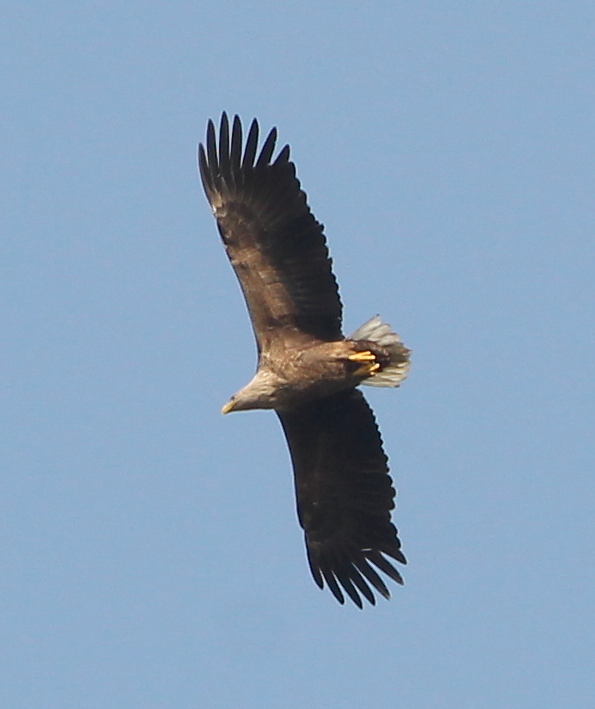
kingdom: Animalia
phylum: Chordata
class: Aves
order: Accipitriformes
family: Accipitridae
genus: Haliaeetus
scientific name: Haliaeetus albicilla
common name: White-tailed eagle
